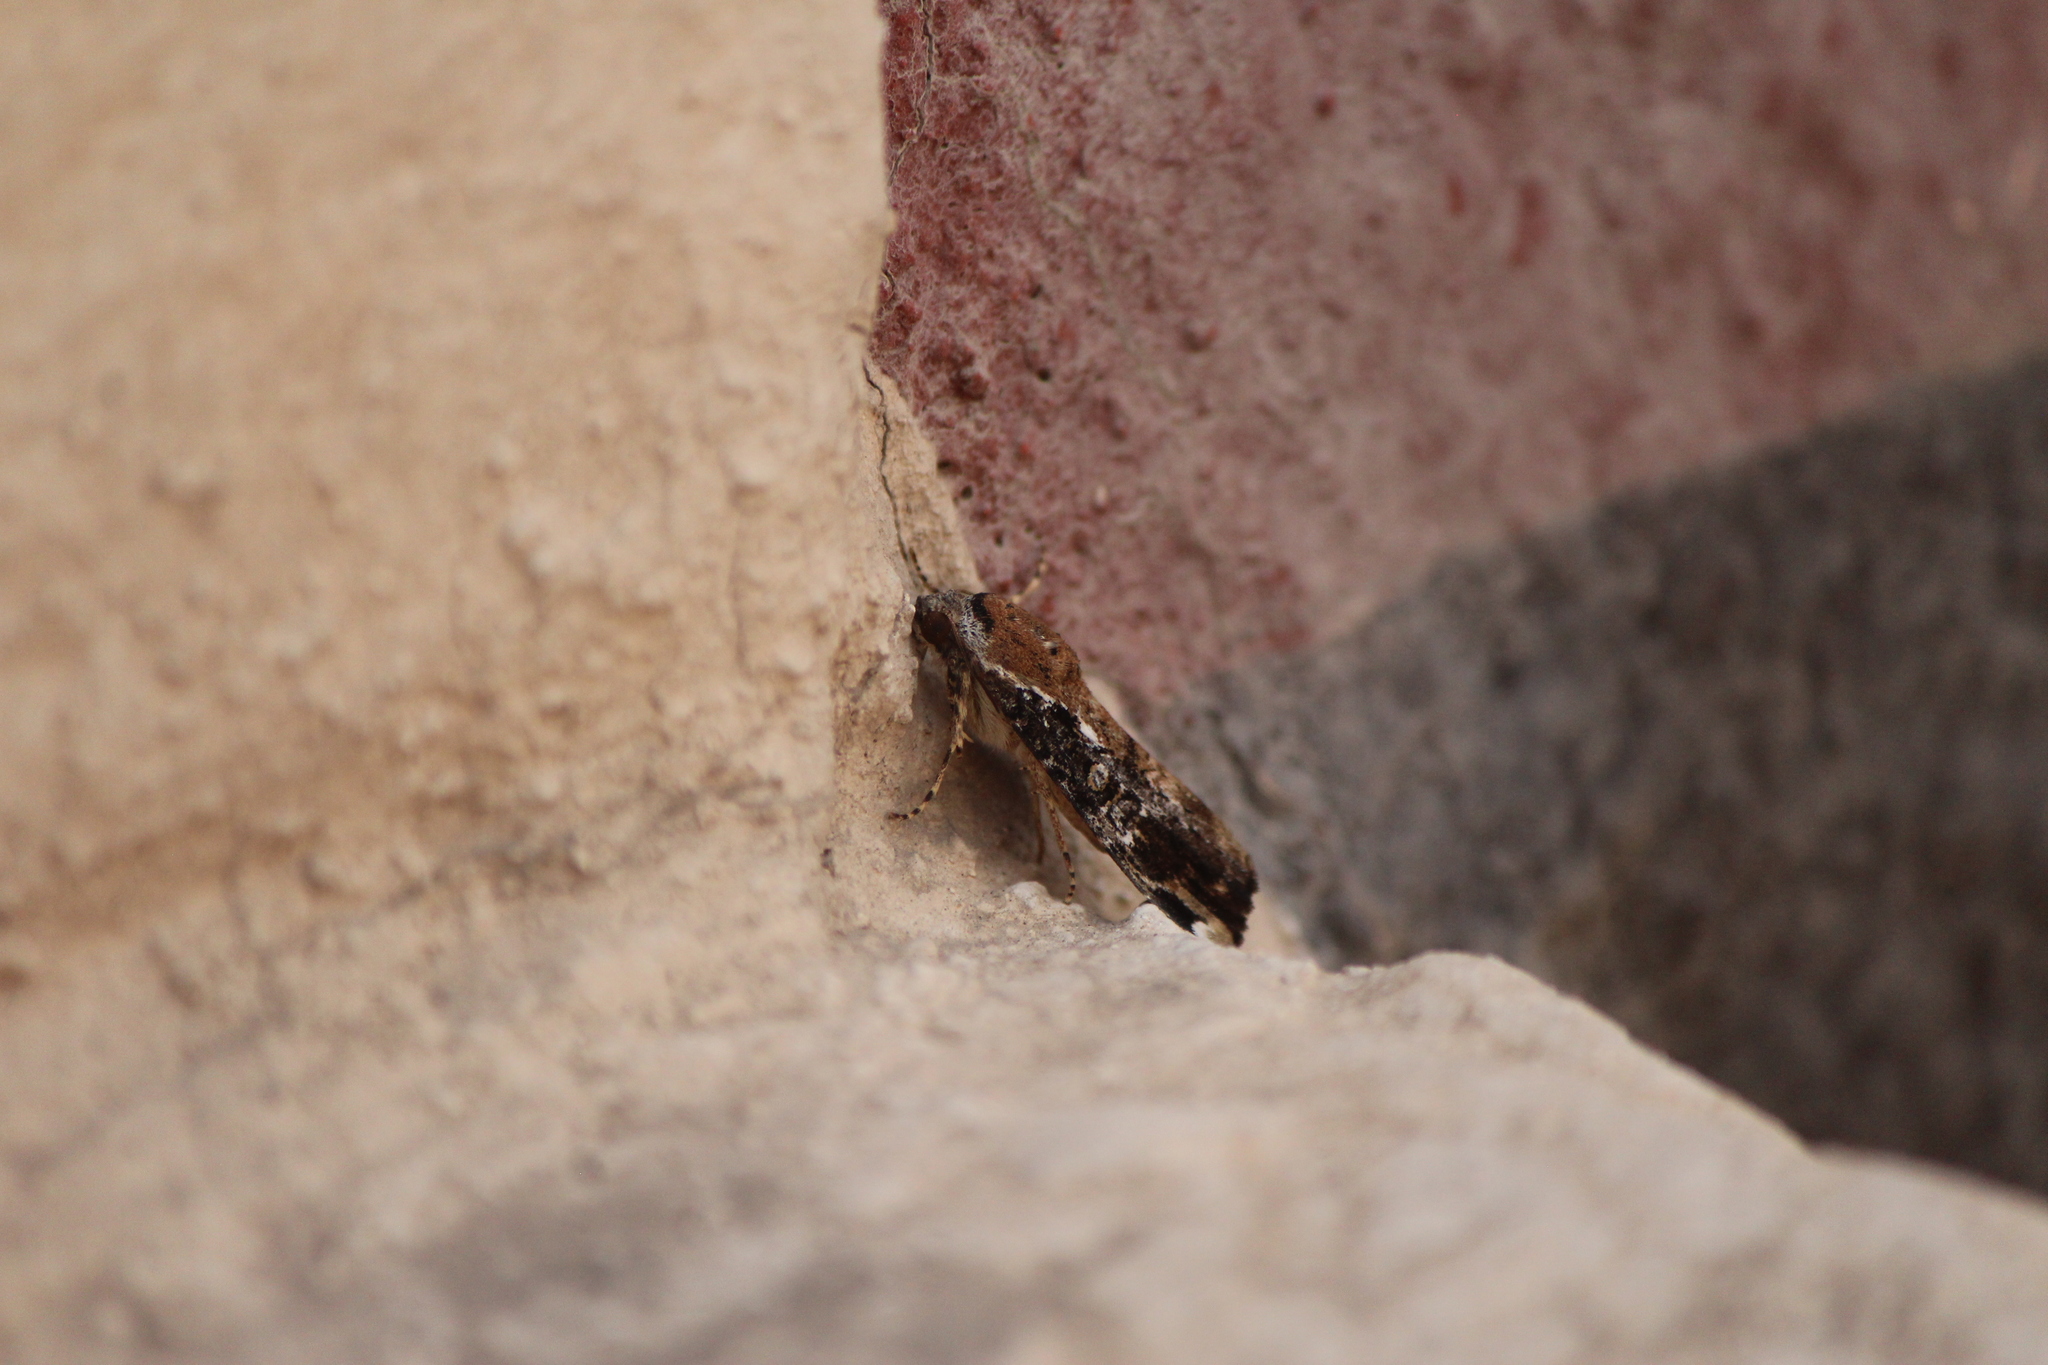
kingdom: Animalia
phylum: Arthropoda
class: Insecta
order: Lepidoptera
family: Noctuidae
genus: Magusa
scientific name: Magusa divaricata
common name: Orb narrow-winged moth
